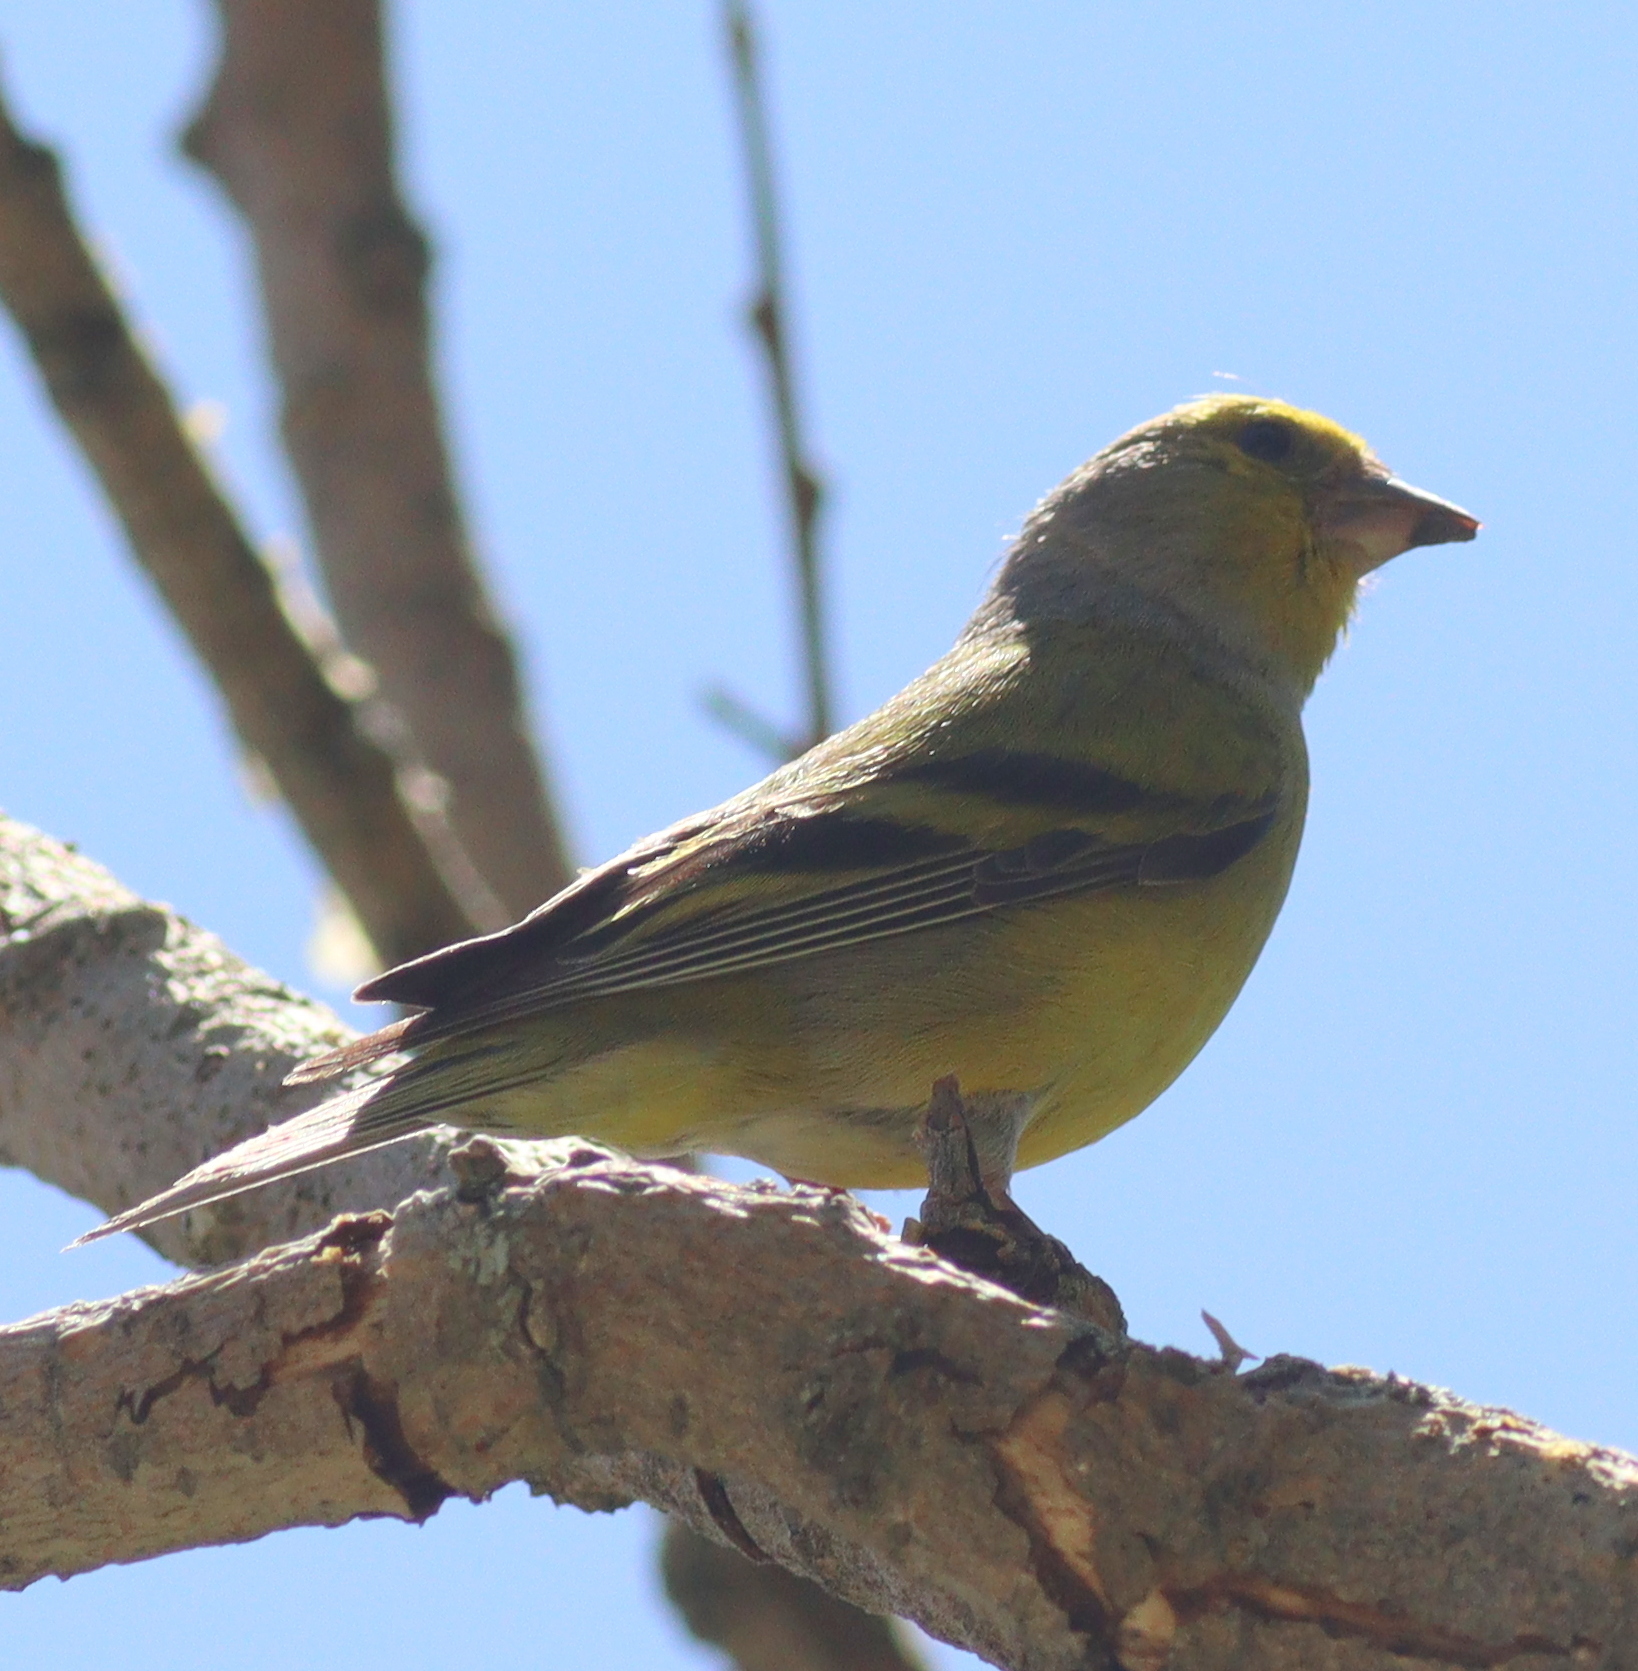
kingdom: Animalia
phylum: Chordata
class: Aves
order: Passeriformes
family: Fringillidae
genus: Carduelis
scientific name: Carduelis citrinella
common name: Citril finch
